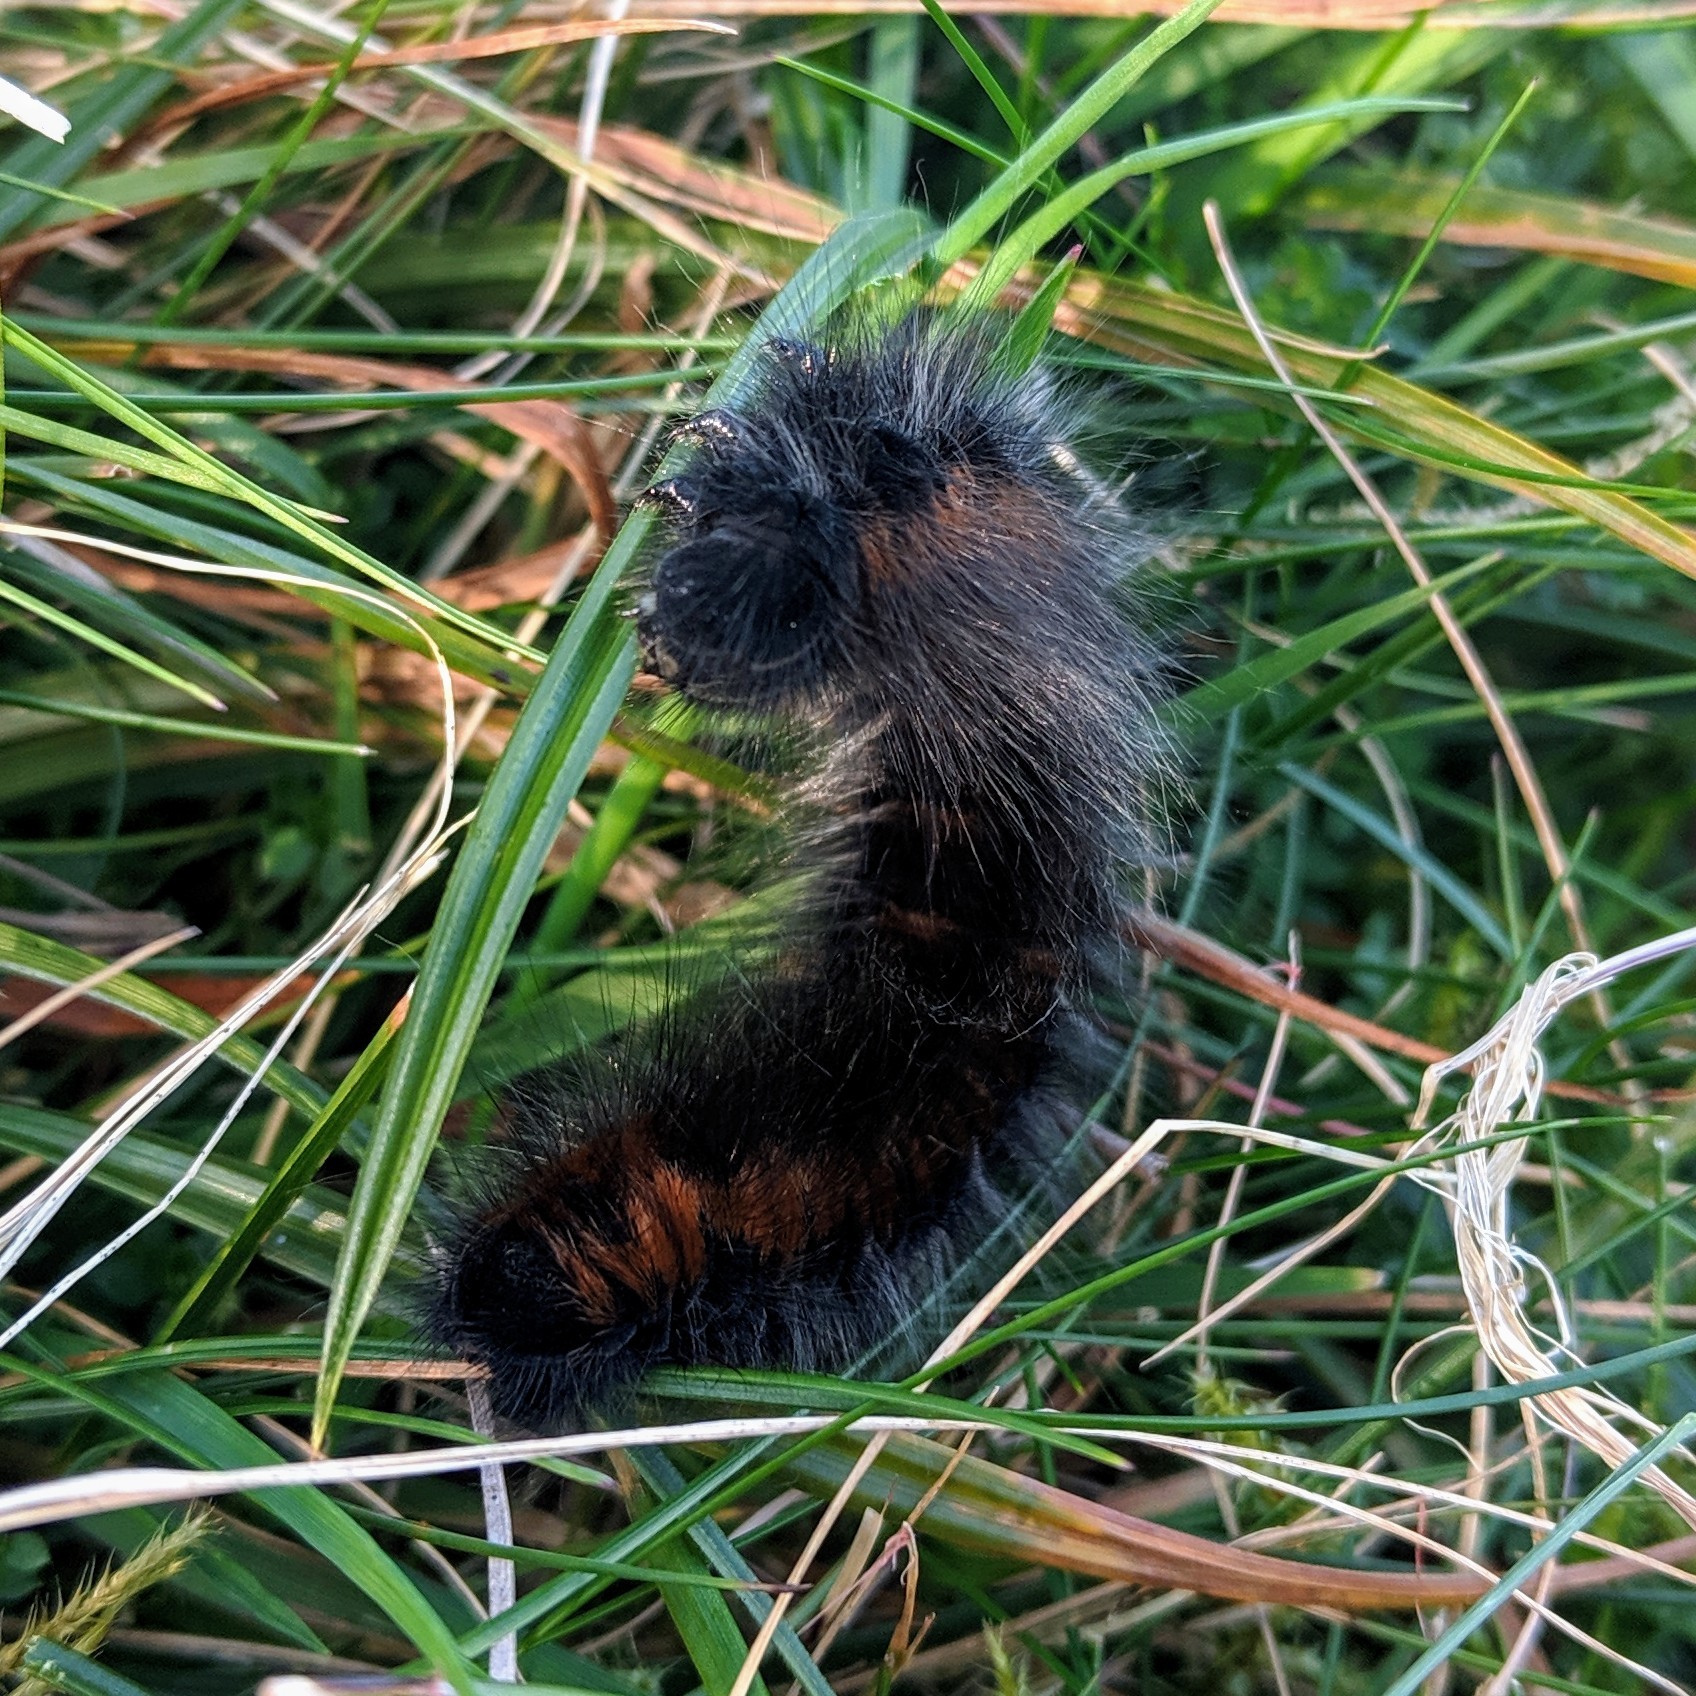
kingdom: Animalia
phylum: Arthropoda
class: Insecta
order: Lepidoptera
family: Lasiocampidae
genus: Macrothylacia
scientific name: Macrothylacia rubi
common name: Fox moth
